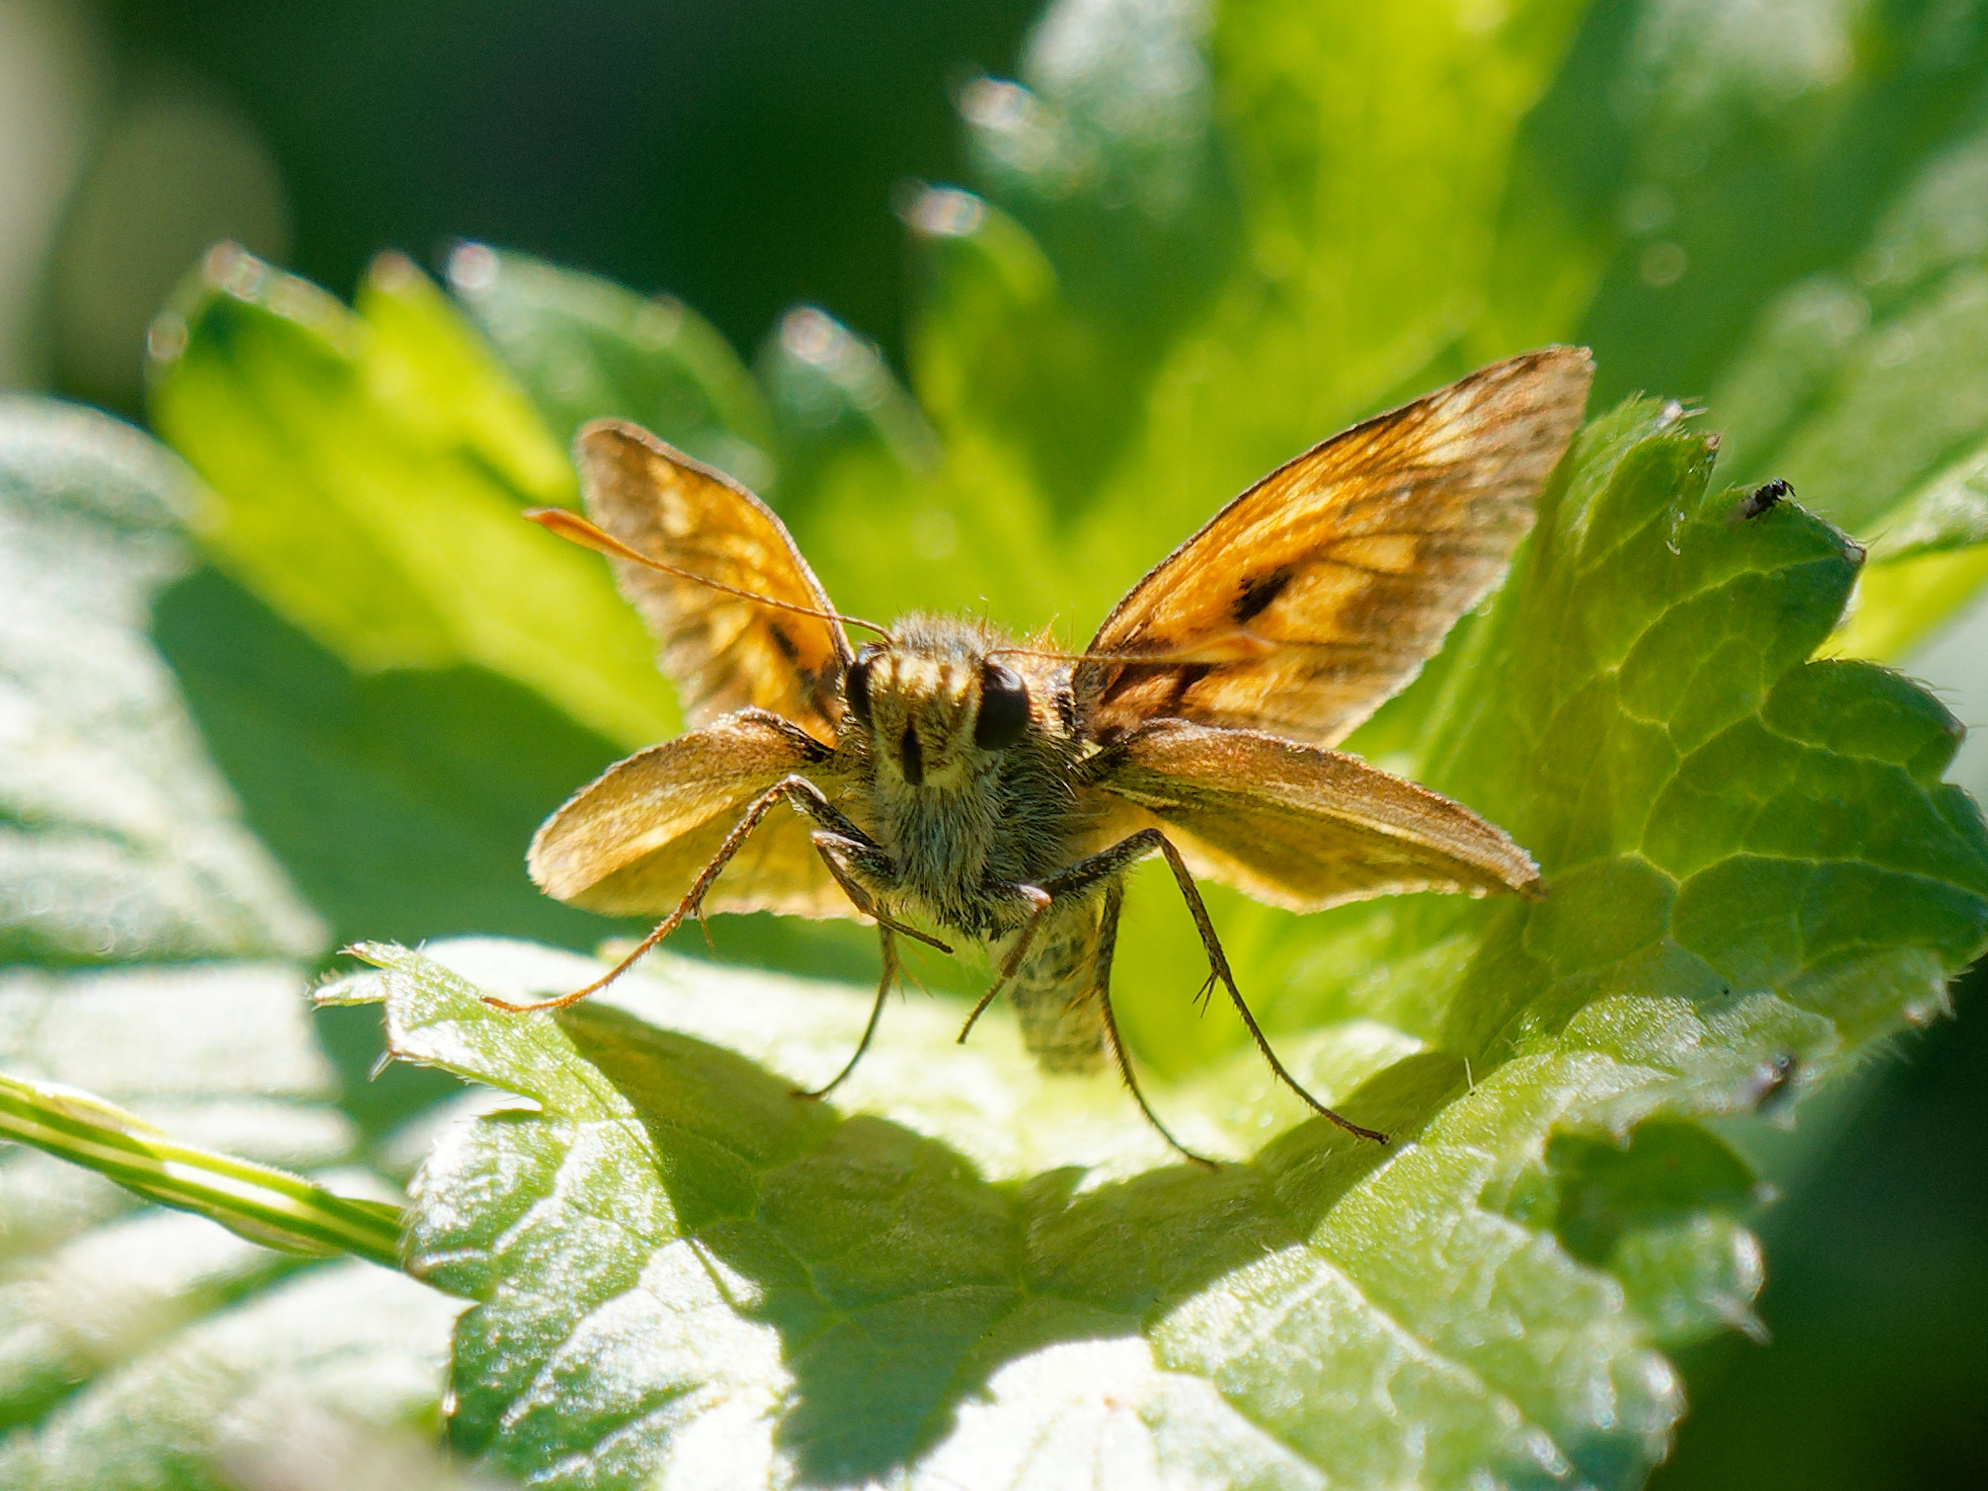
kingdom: Animalia
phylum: Arthropoda
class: Insecta
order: Lepidoptera
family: Hesperiidae
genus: Ochlodes
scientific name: Ochlodes venata
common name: Large skipper
